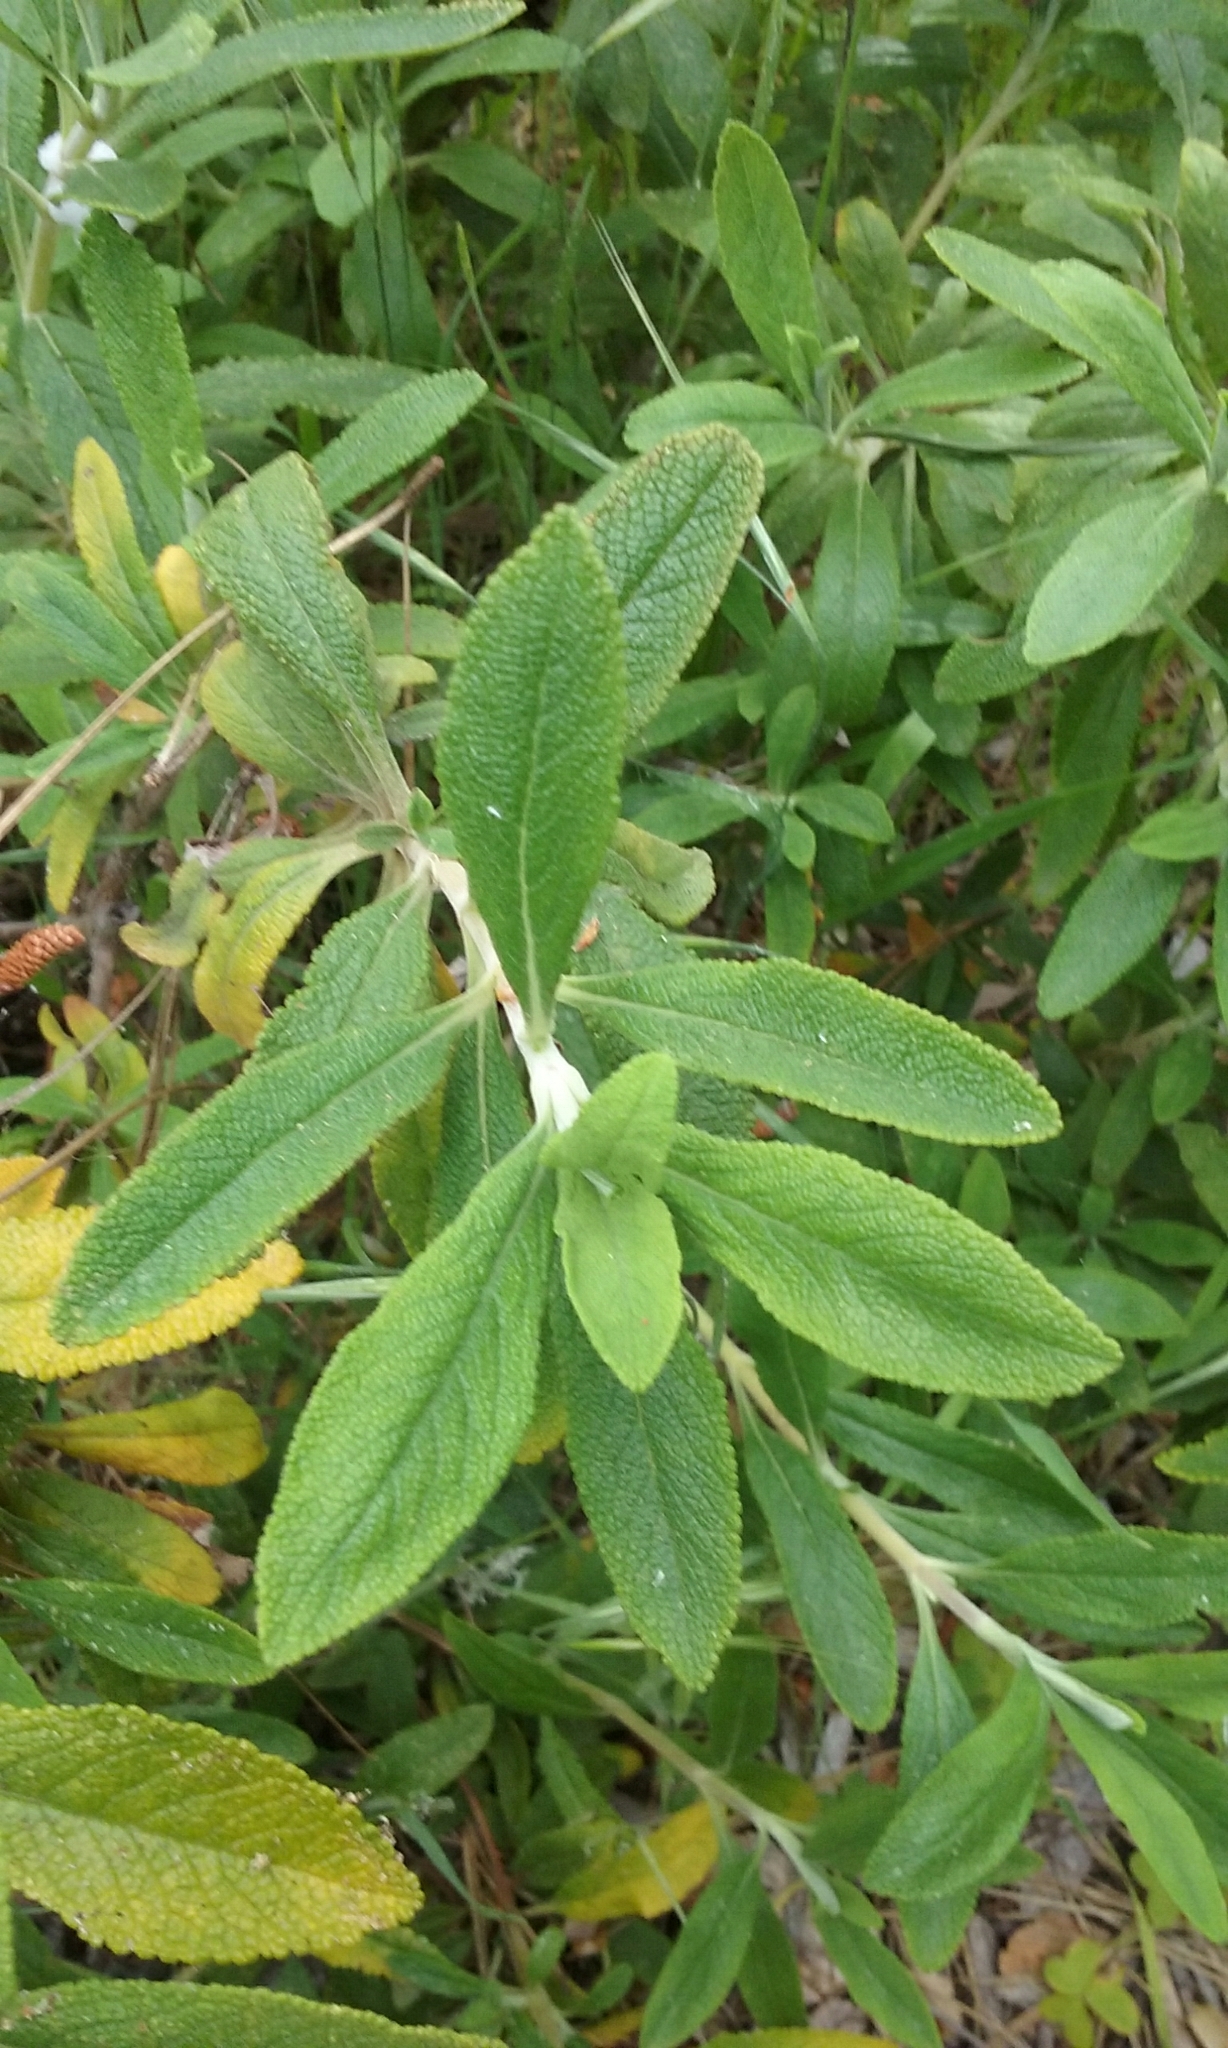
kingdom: Plantae
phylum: Tracheophyta
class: Magnoliopsida
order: Lamiales
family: Lamiaceae
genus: Salvia
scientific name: Salvia mellifera
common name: Black sage
